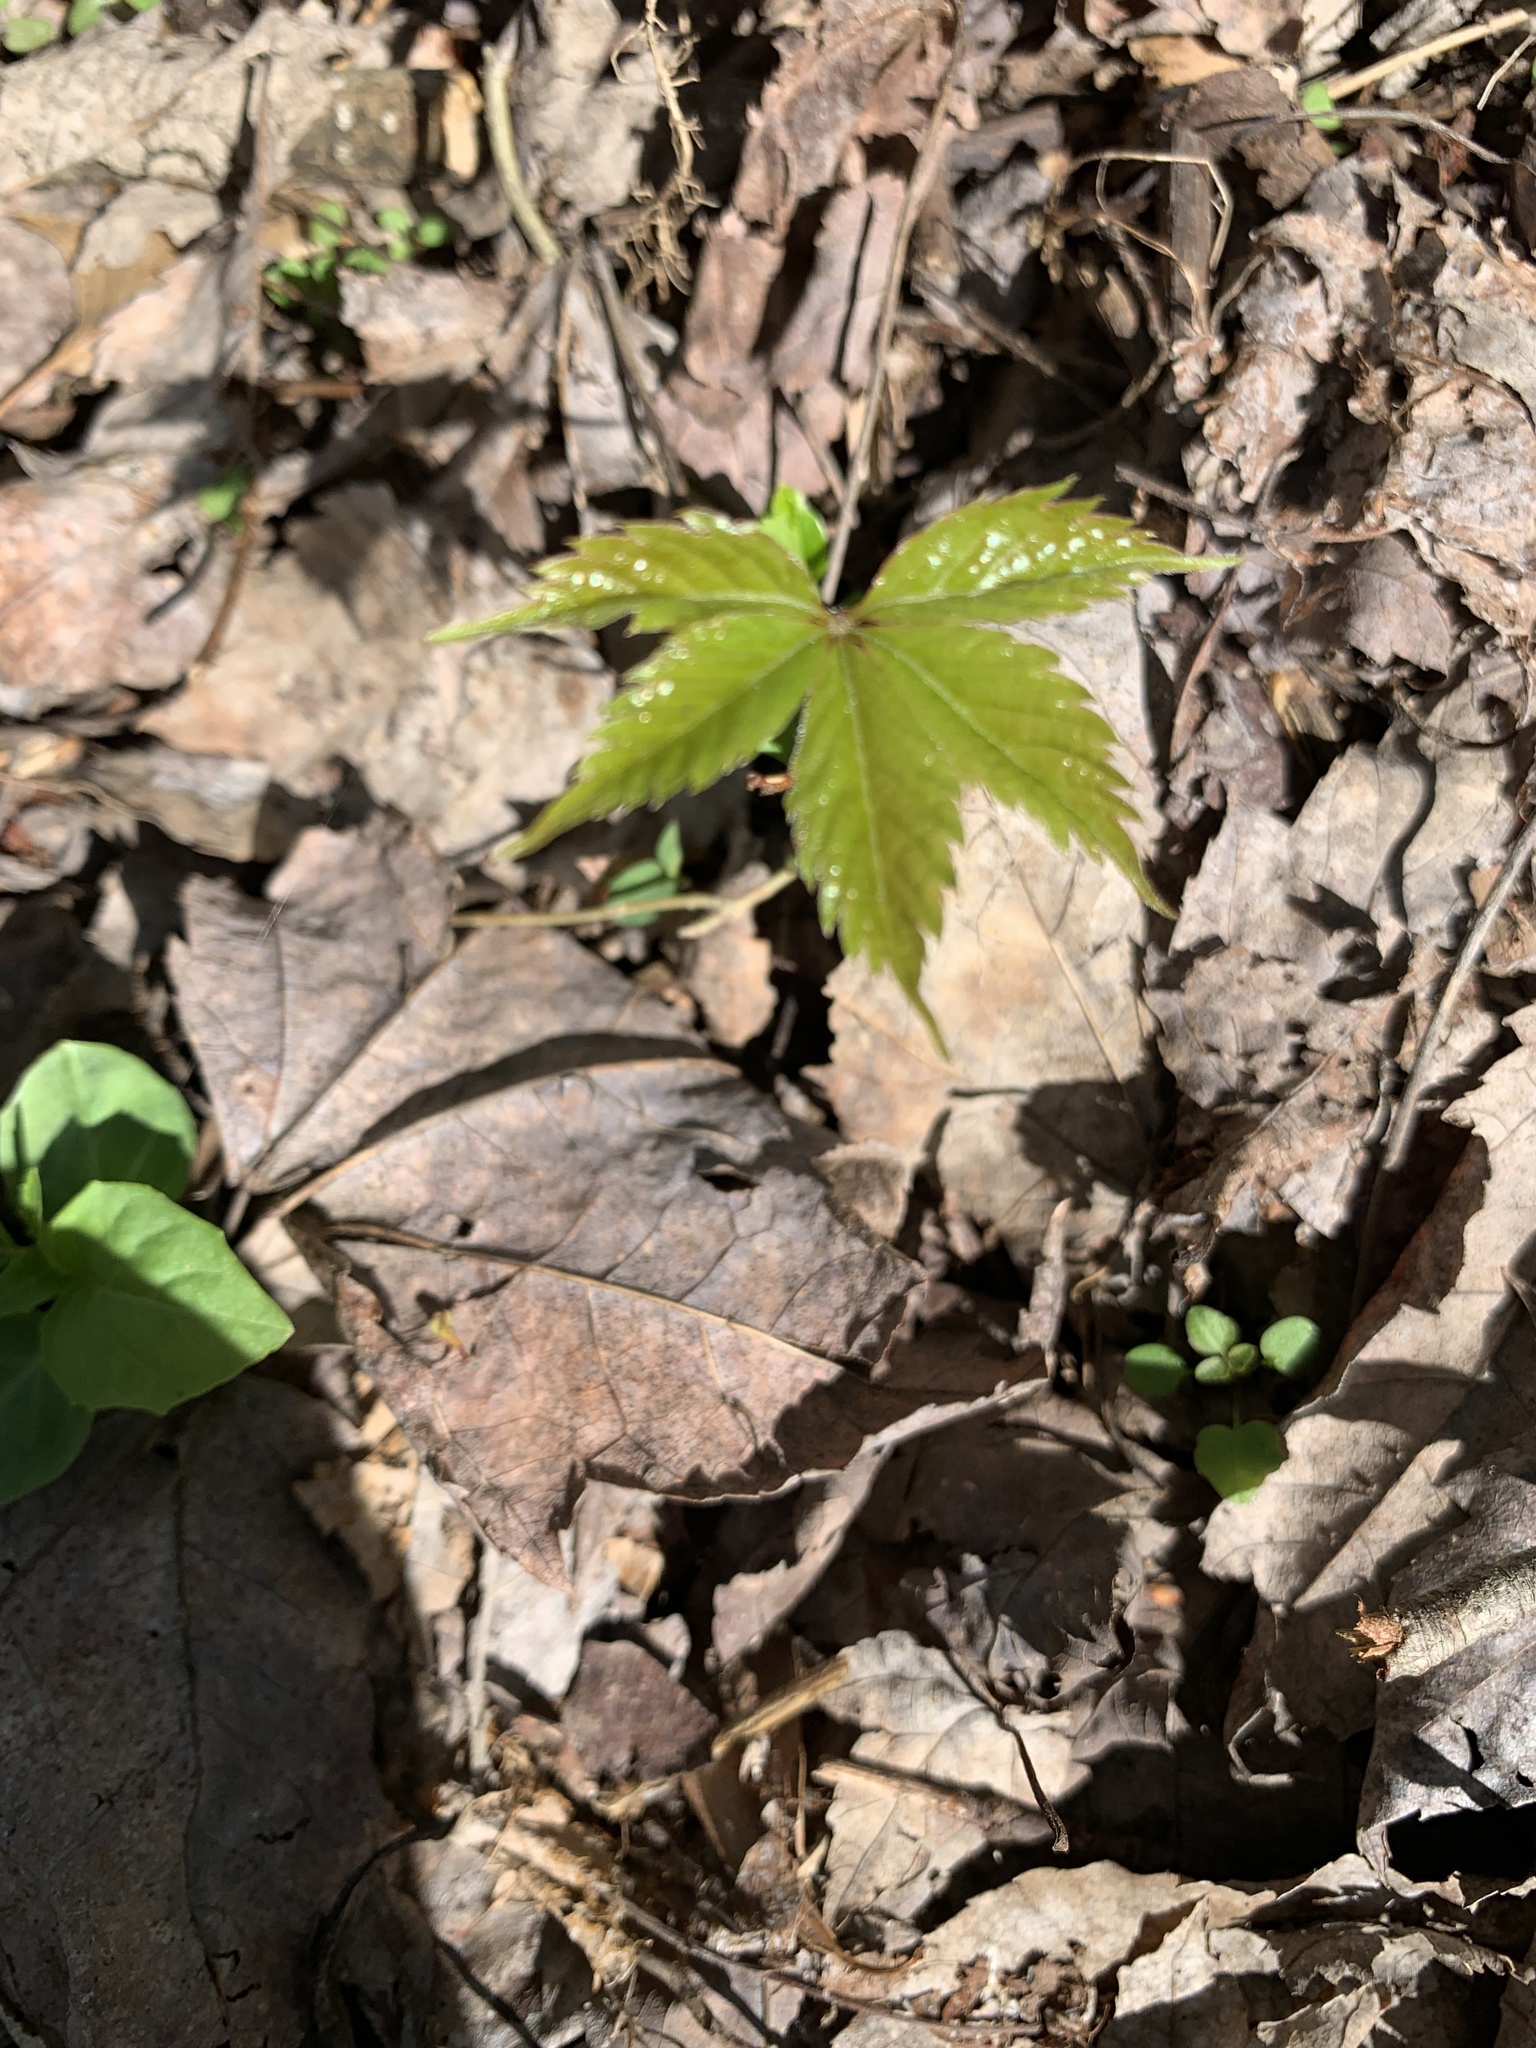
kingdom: Plantae
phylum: Tracheophyta
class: Magnoliopsida
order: Vitales
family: Vitaceae
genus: Parthenocissus
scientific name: Parthenocissus quinquefolia
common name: Virginia-creeper
